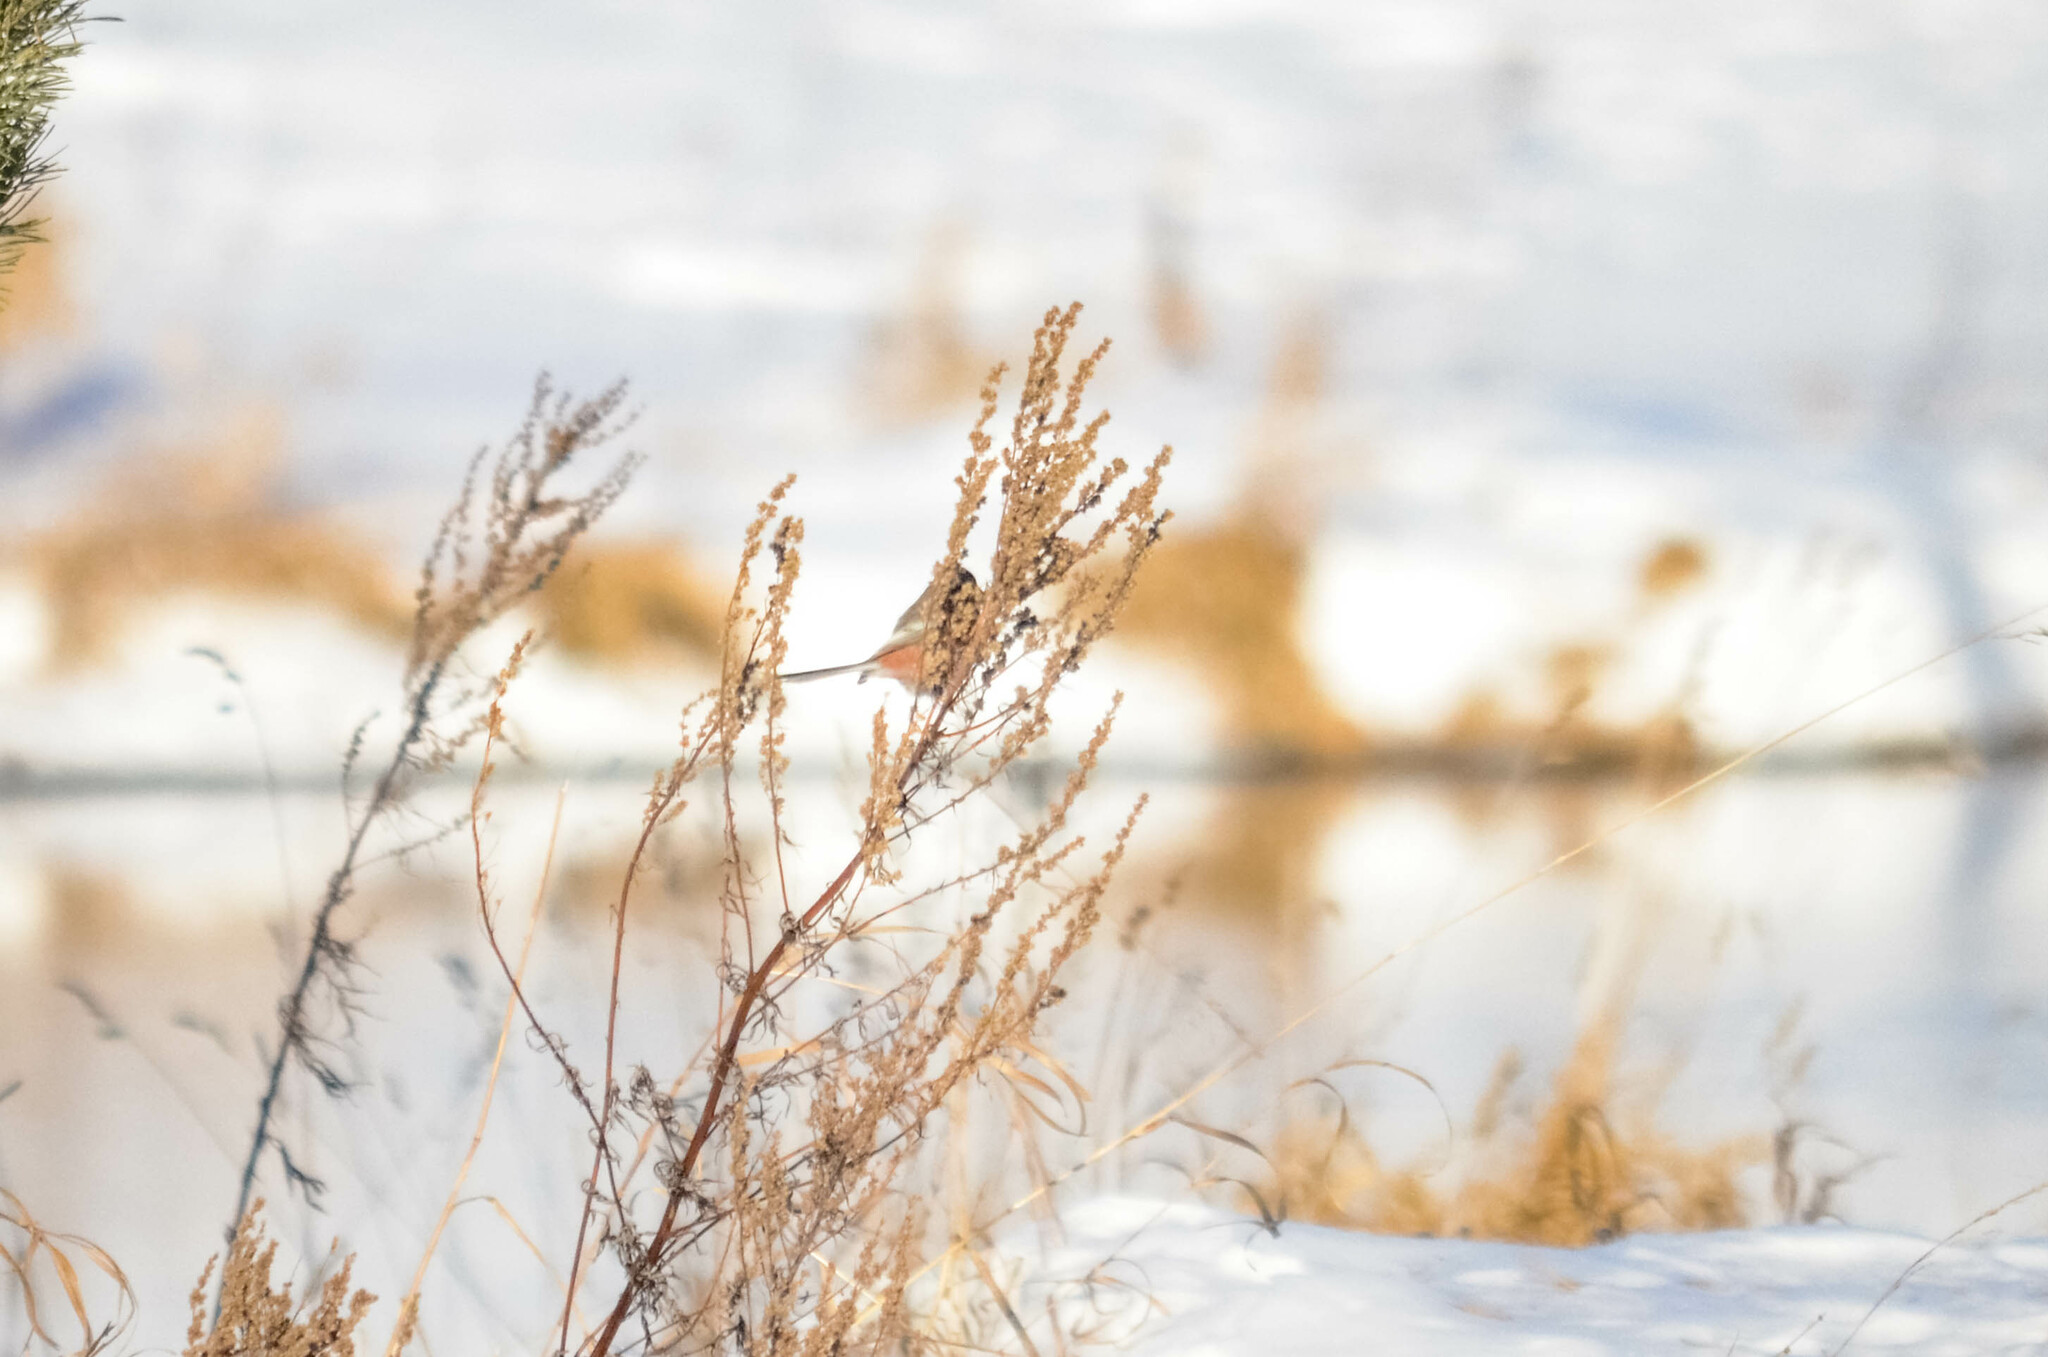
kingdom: Animalia
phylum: Chordata
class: Aves
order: Passeriformes
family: Fringillidae
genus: Carpodacus
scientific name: Carpodacus sibiricus
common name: Long-tailed rosefinch
